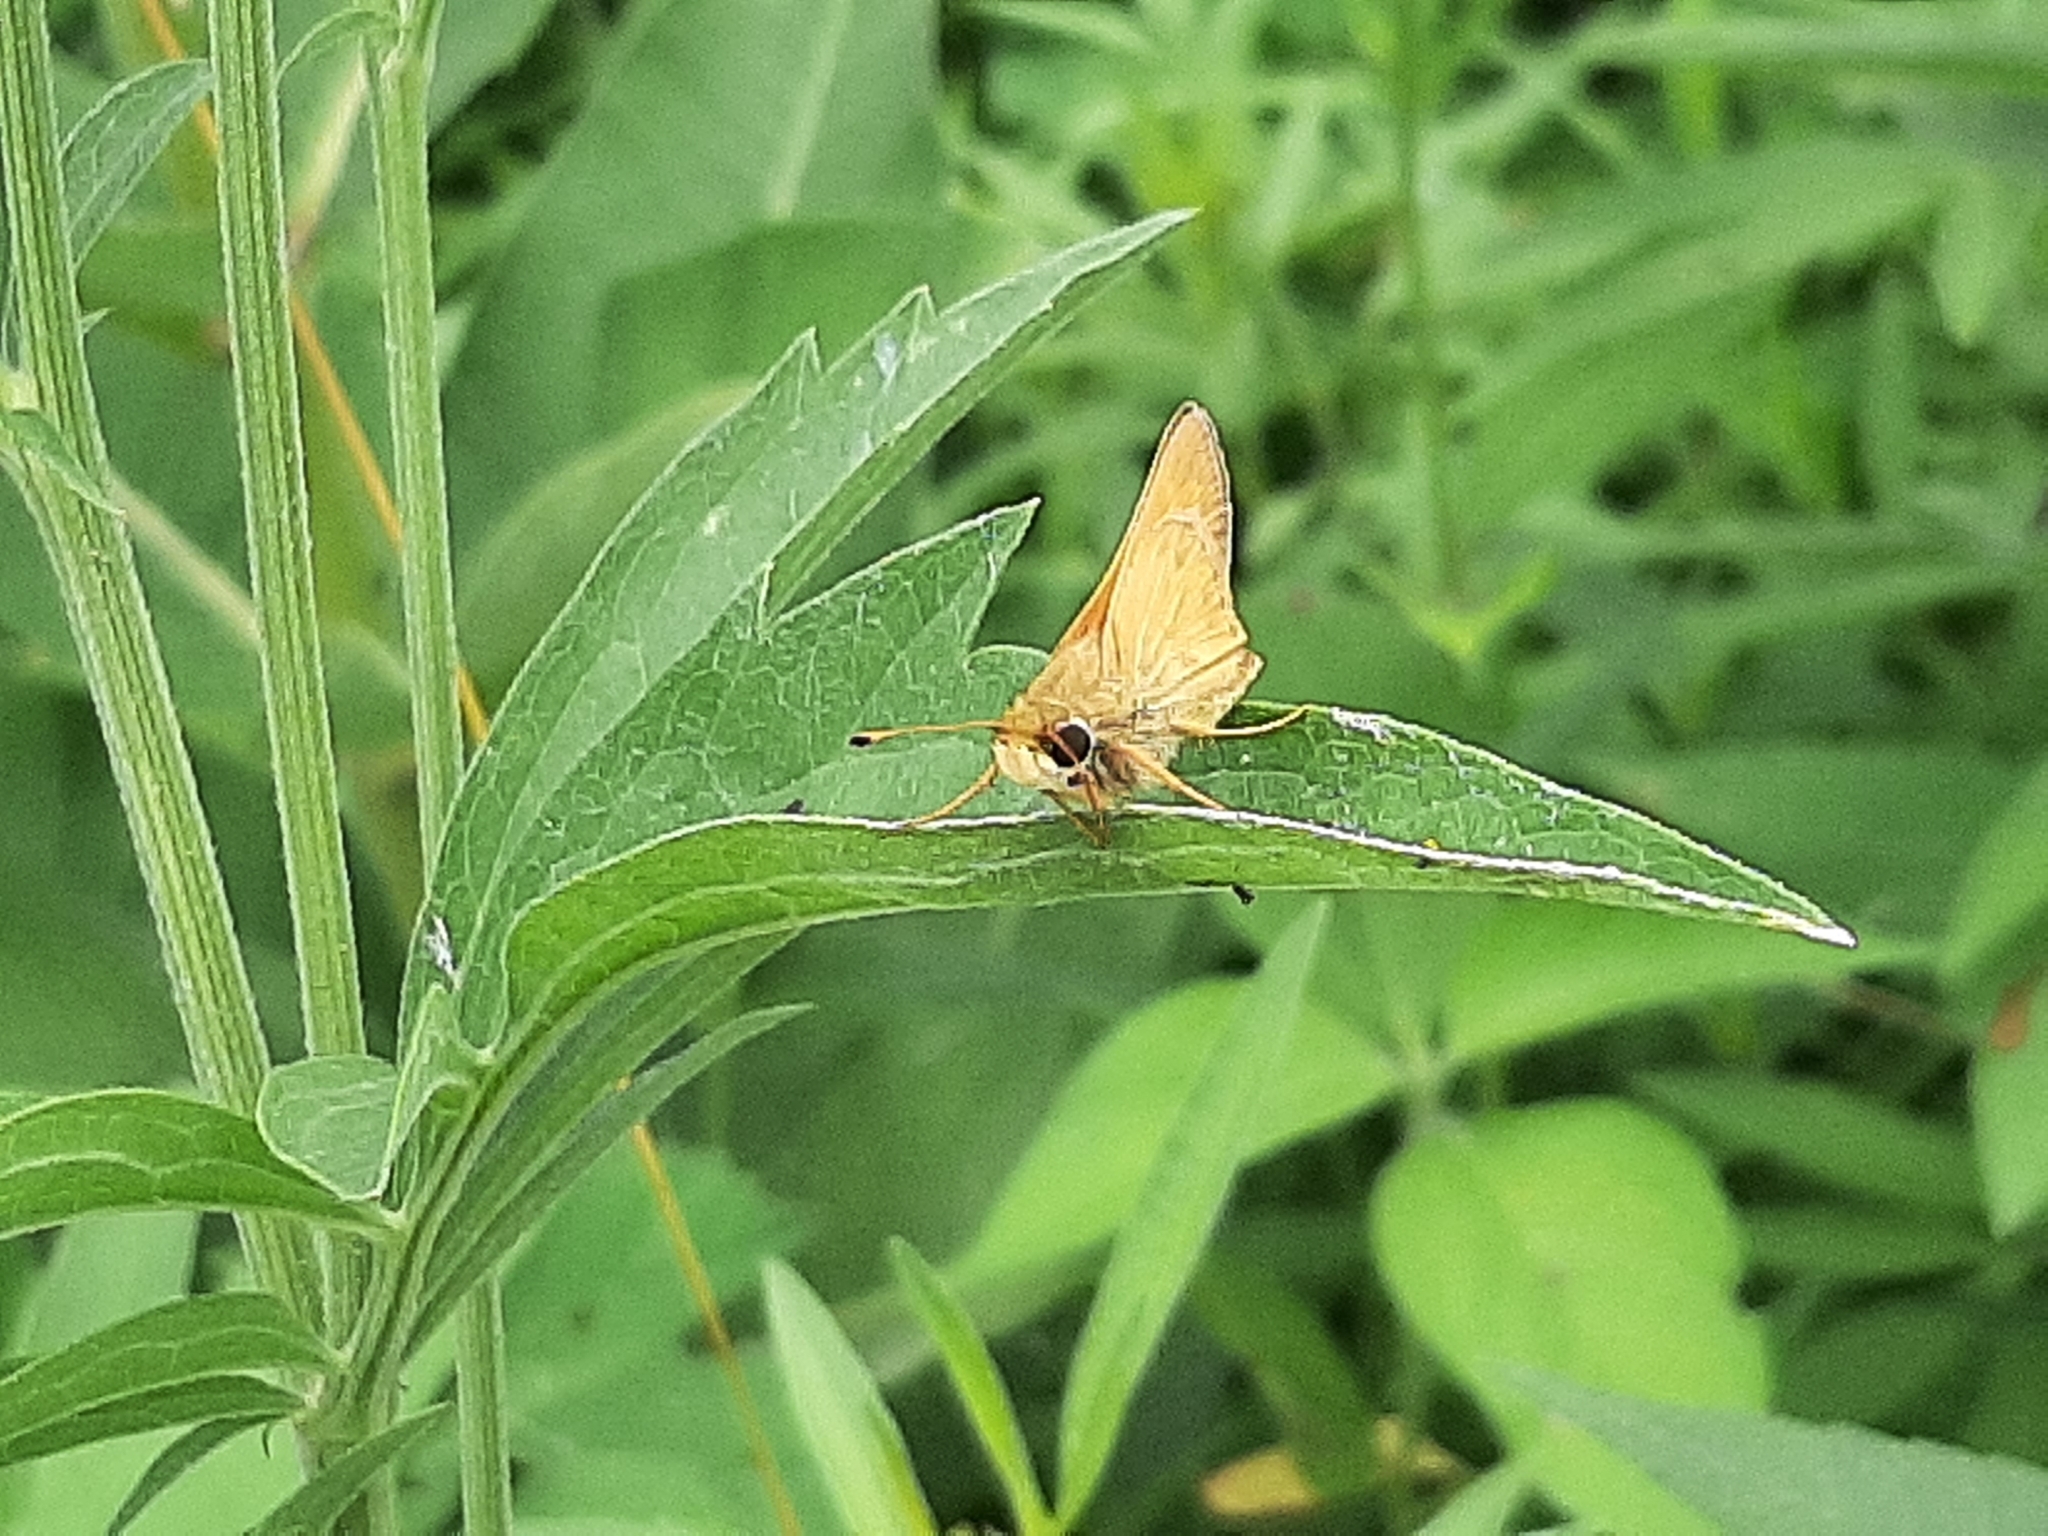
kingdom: Animalia
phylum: Arthropoda
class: Insecta
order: Lepidoptera
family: Hesperiidae
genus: Atalopedes
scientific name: Atalopedes
